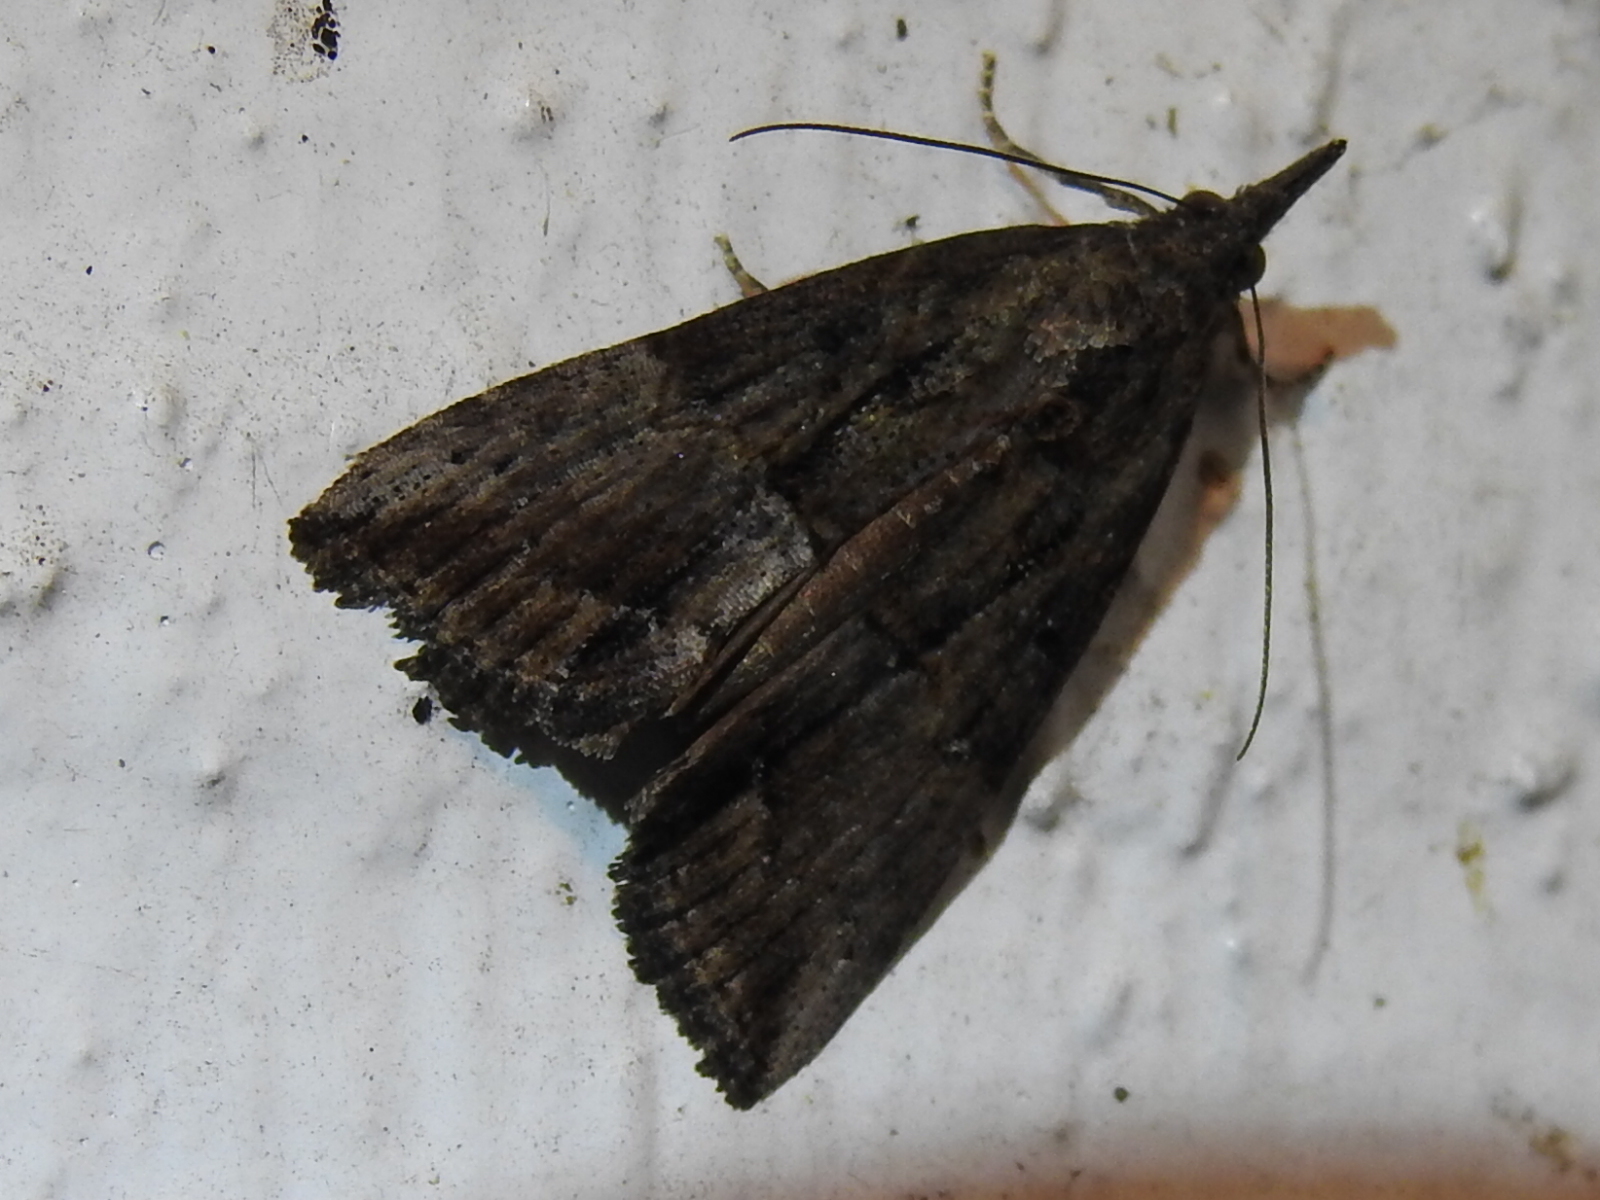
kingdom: Animalia
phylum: Arthropoda
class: Insecta
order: Lepidoptera
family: Erebidae
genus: Hypena
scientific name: Hypena scabra
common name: Green cloverworm
